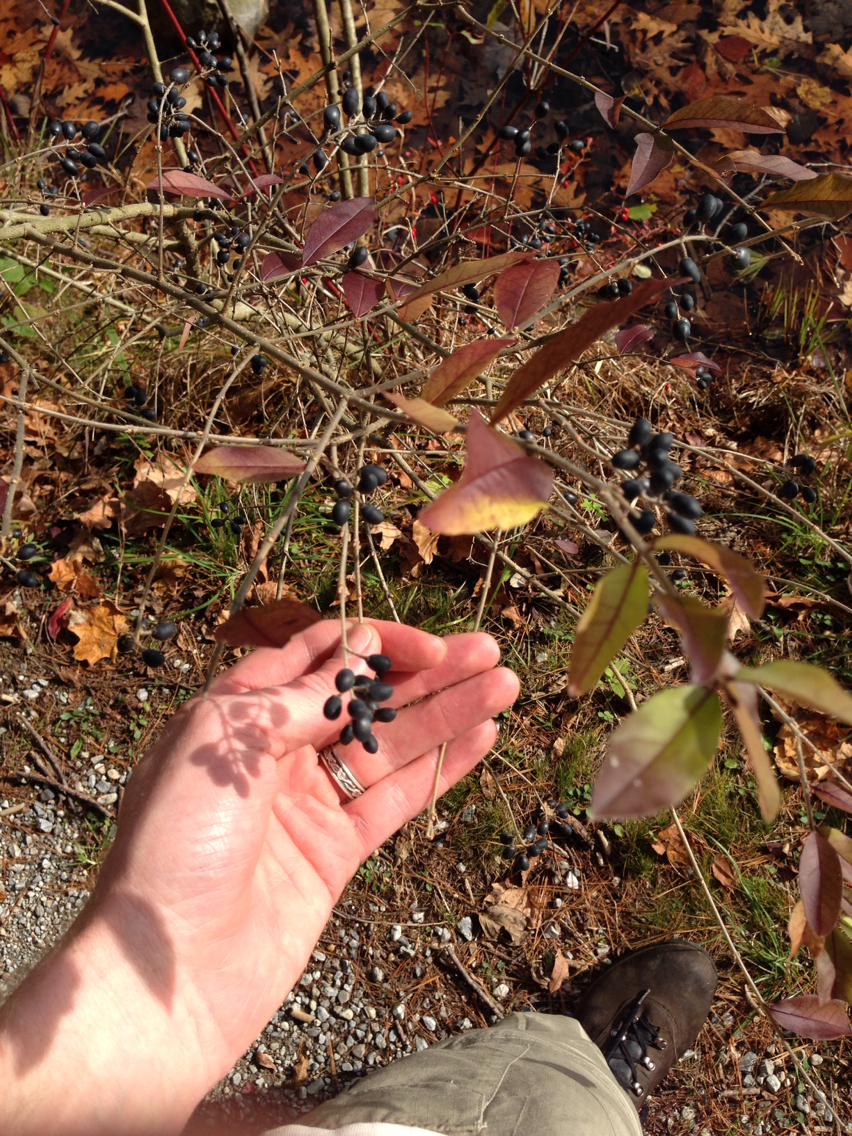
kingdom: Plantae
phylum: Tracheophyta
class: Magnoliopsida
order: Lamiales
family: Oleaceae
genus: Ligustrum
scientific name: Ligustrum
